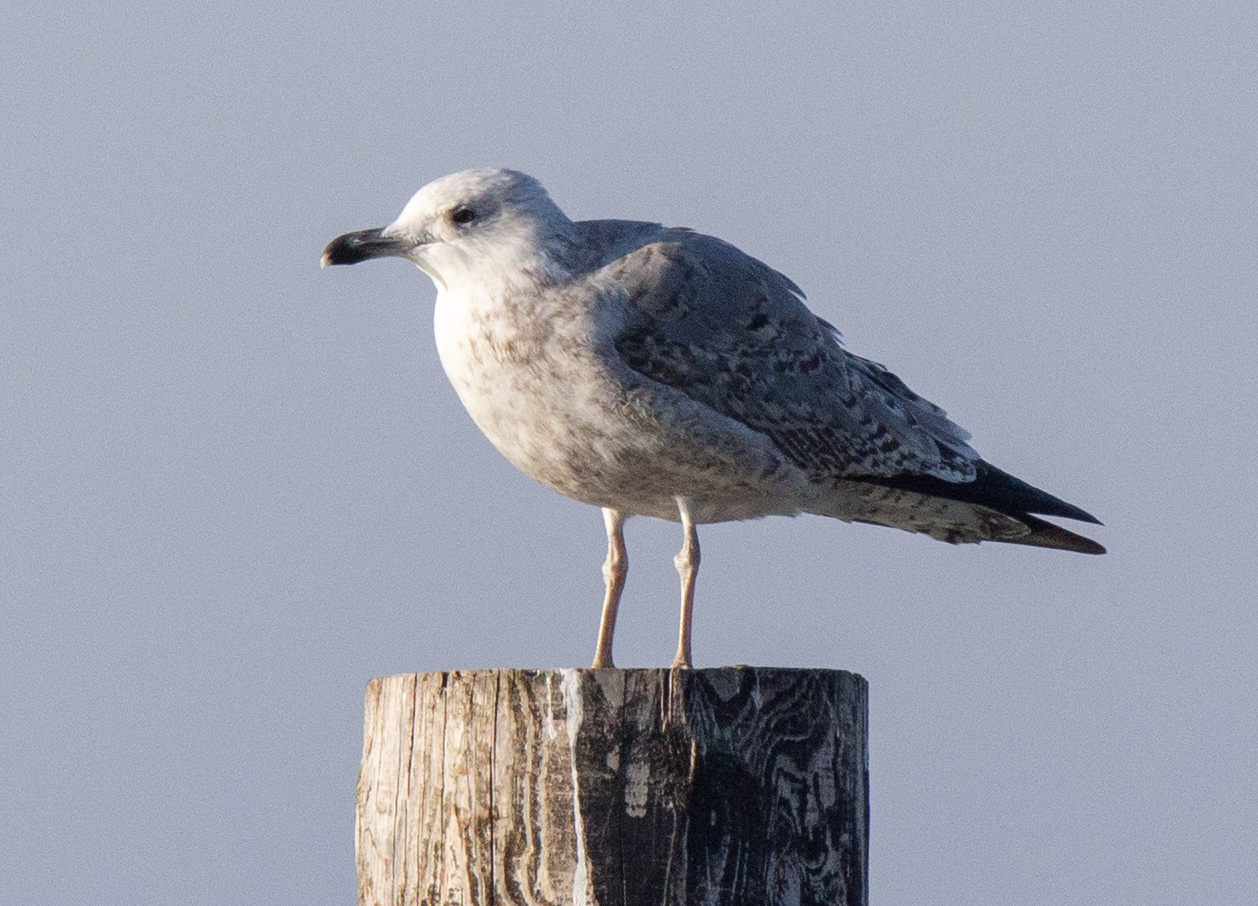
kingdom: Animalia
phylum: Chordata
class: Aves
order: Charadriiformes
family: Laridae
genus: Larus
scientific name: Larus michahellis
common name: Yellow-legged gull
